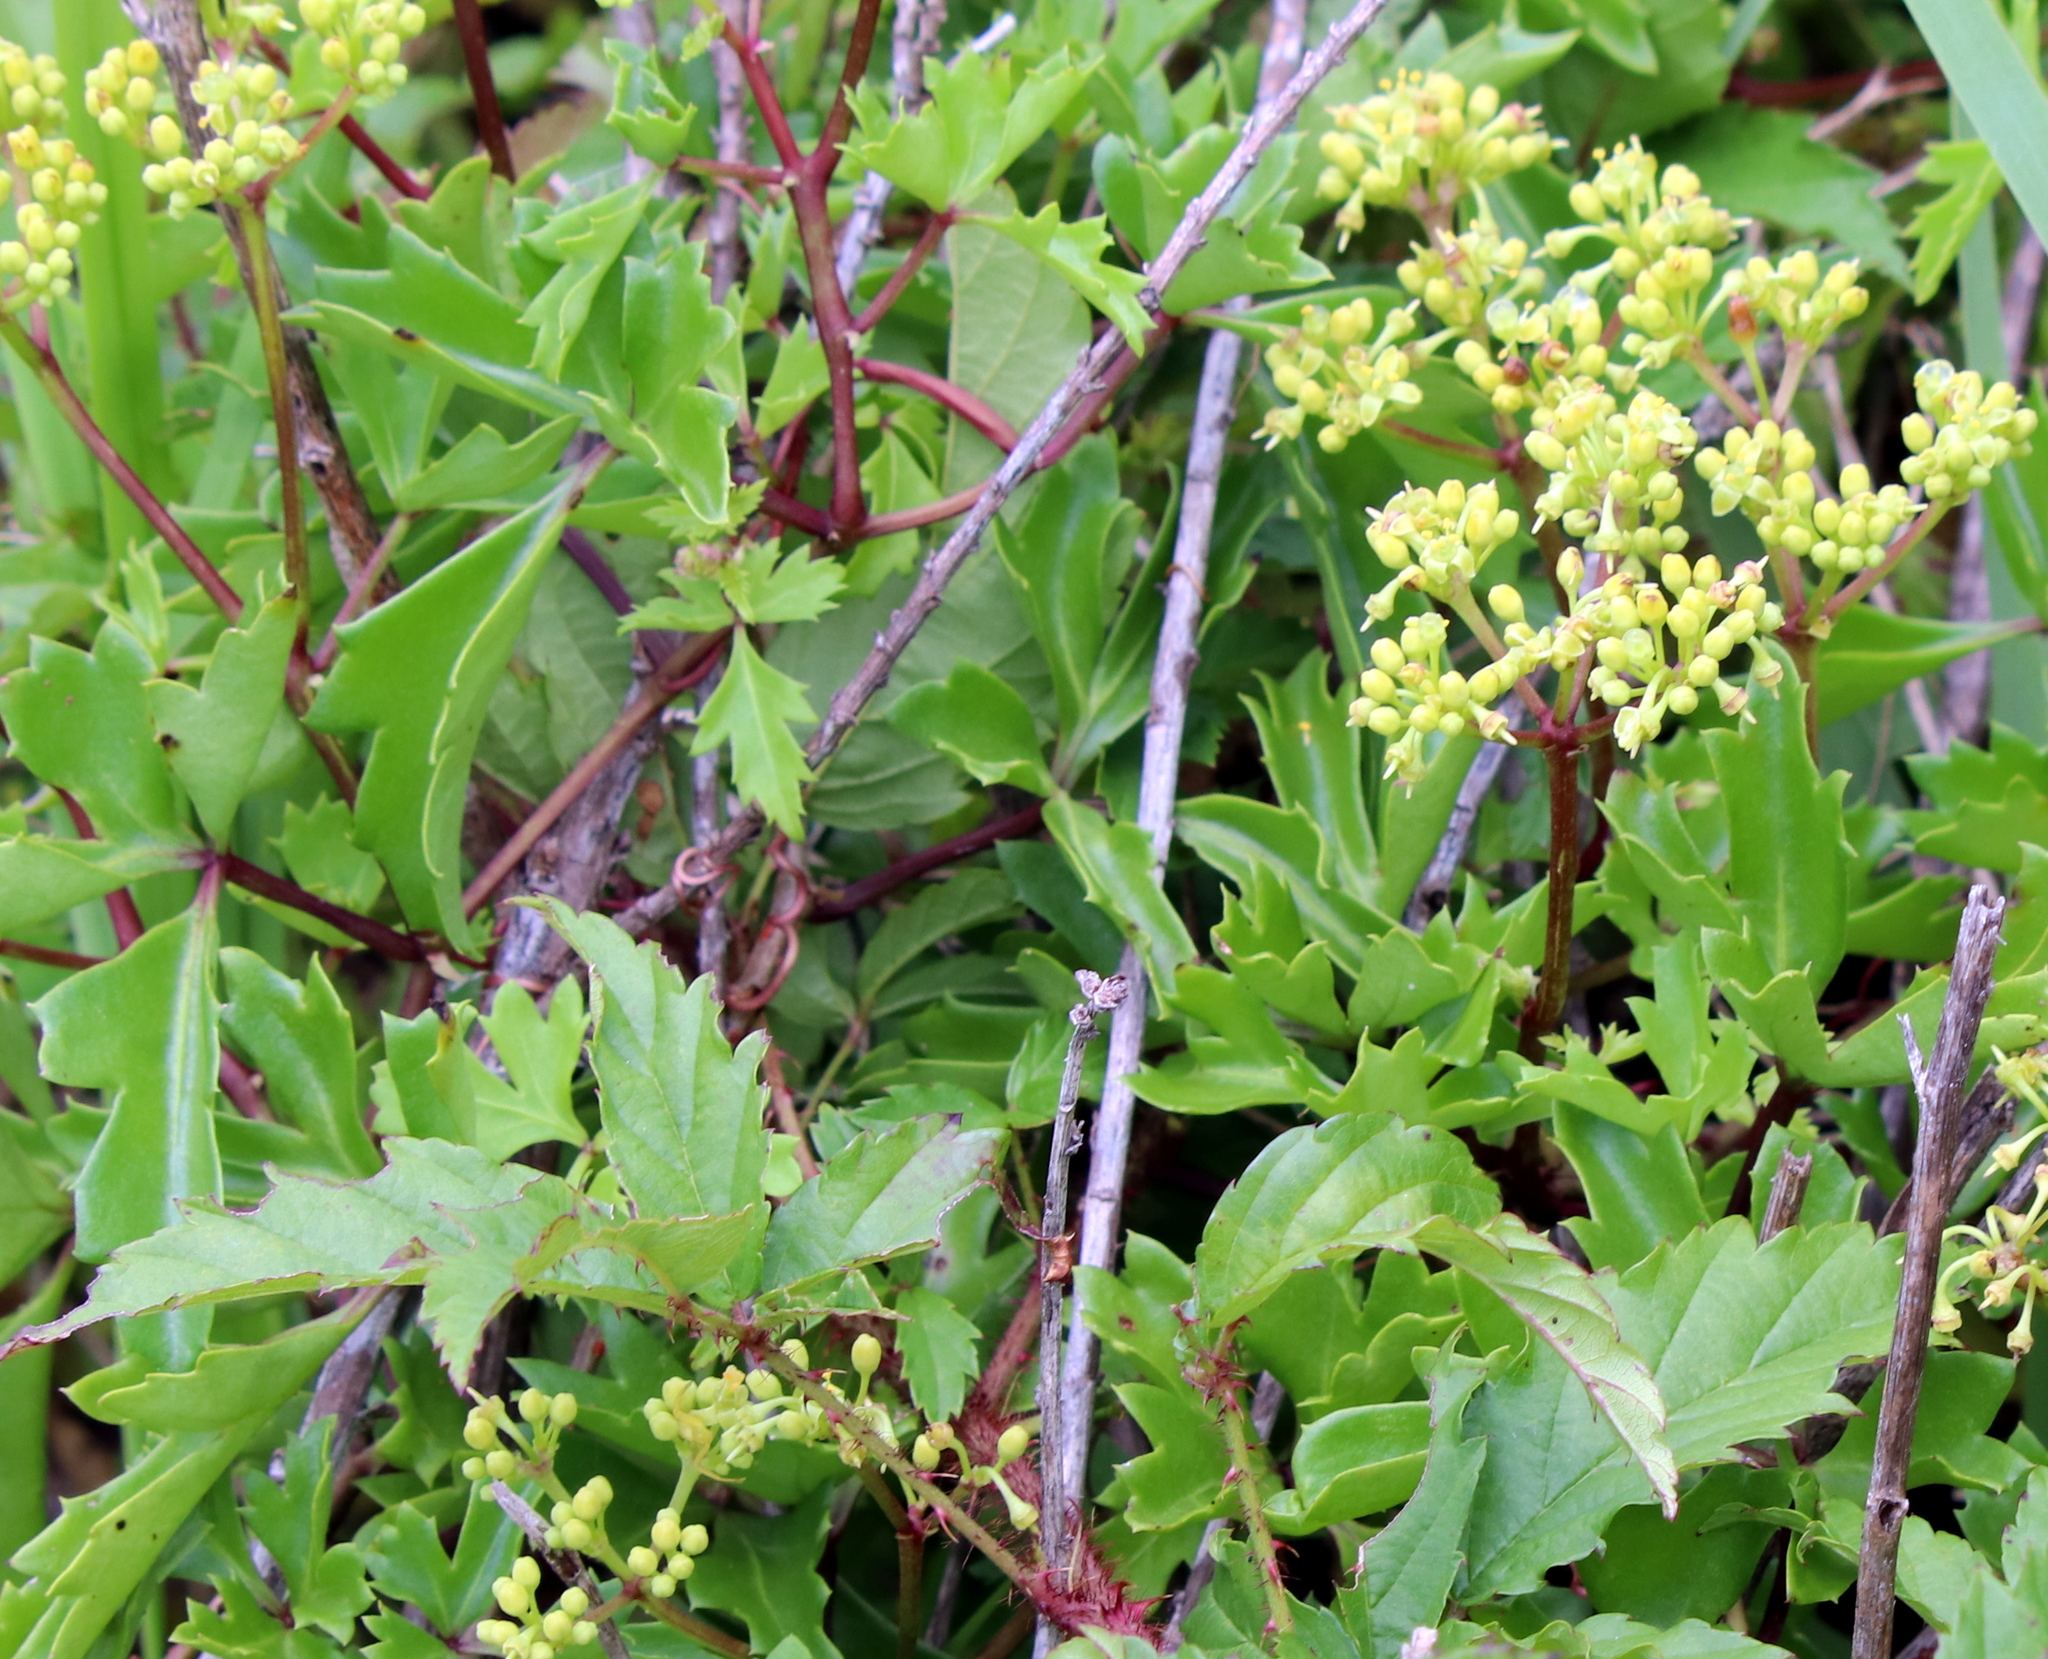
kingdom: Plantae
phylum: Tracheophyta
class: Magnoliopsida
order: Vitales
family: Vitaceae
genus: Cissus
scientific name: Cissus trifoliata
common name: Vine-sorrel
